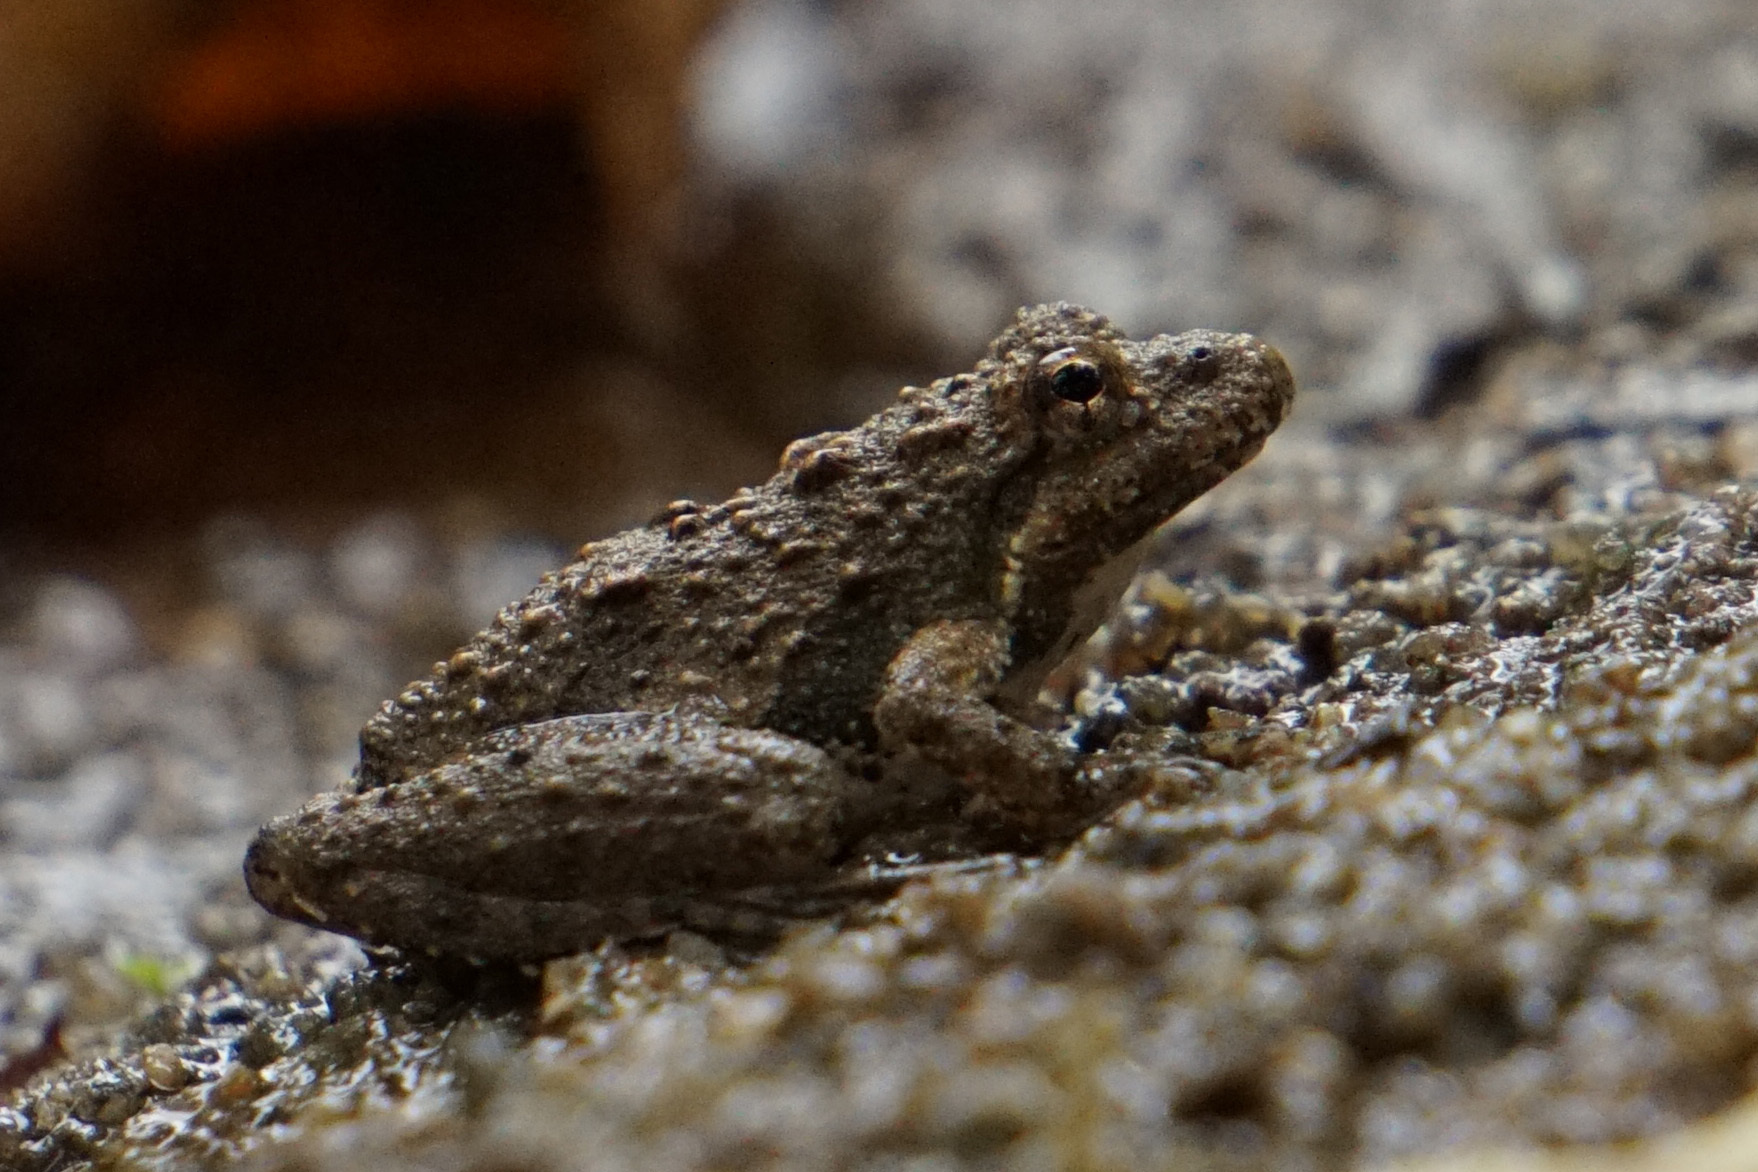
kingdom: Animalia
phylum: Chordata
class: Amphibia
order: Anura
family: Hylidae
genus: Acris
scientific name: Acris crepitans
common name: Northern cricket frog
